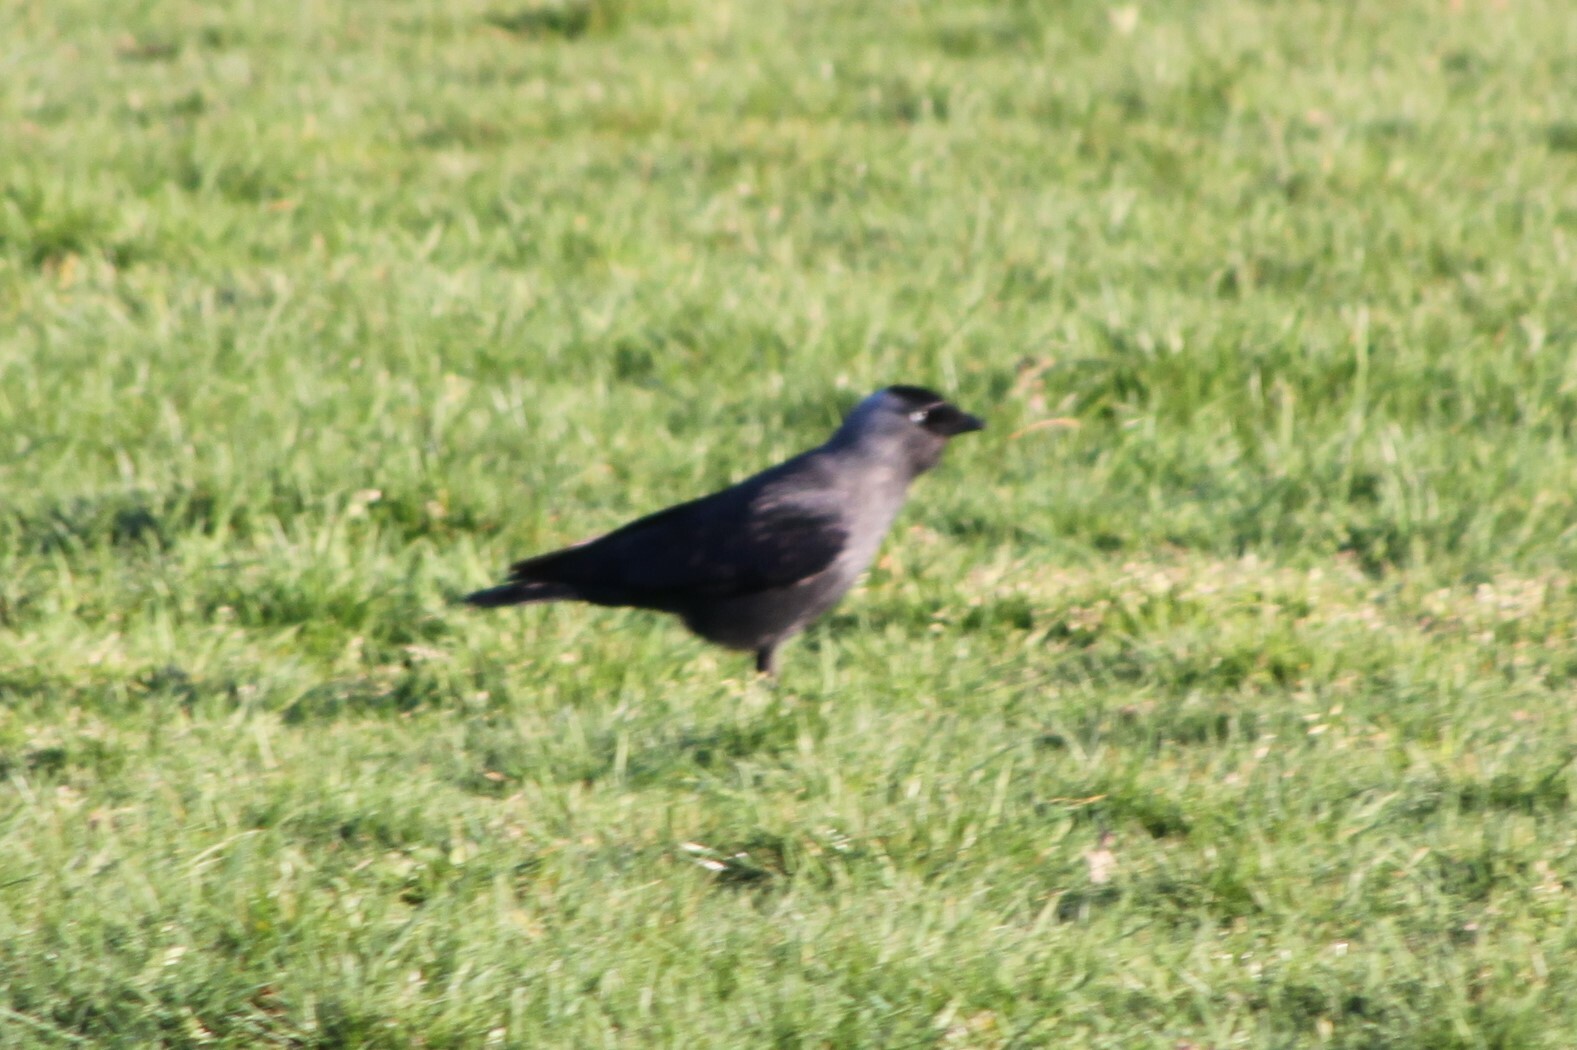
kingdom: Animalia
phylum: Chordata
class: Aves
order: Passeriformes
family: Corvidae
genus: Coloeus
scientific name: Coloeus monedula
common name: Western jackdaw
